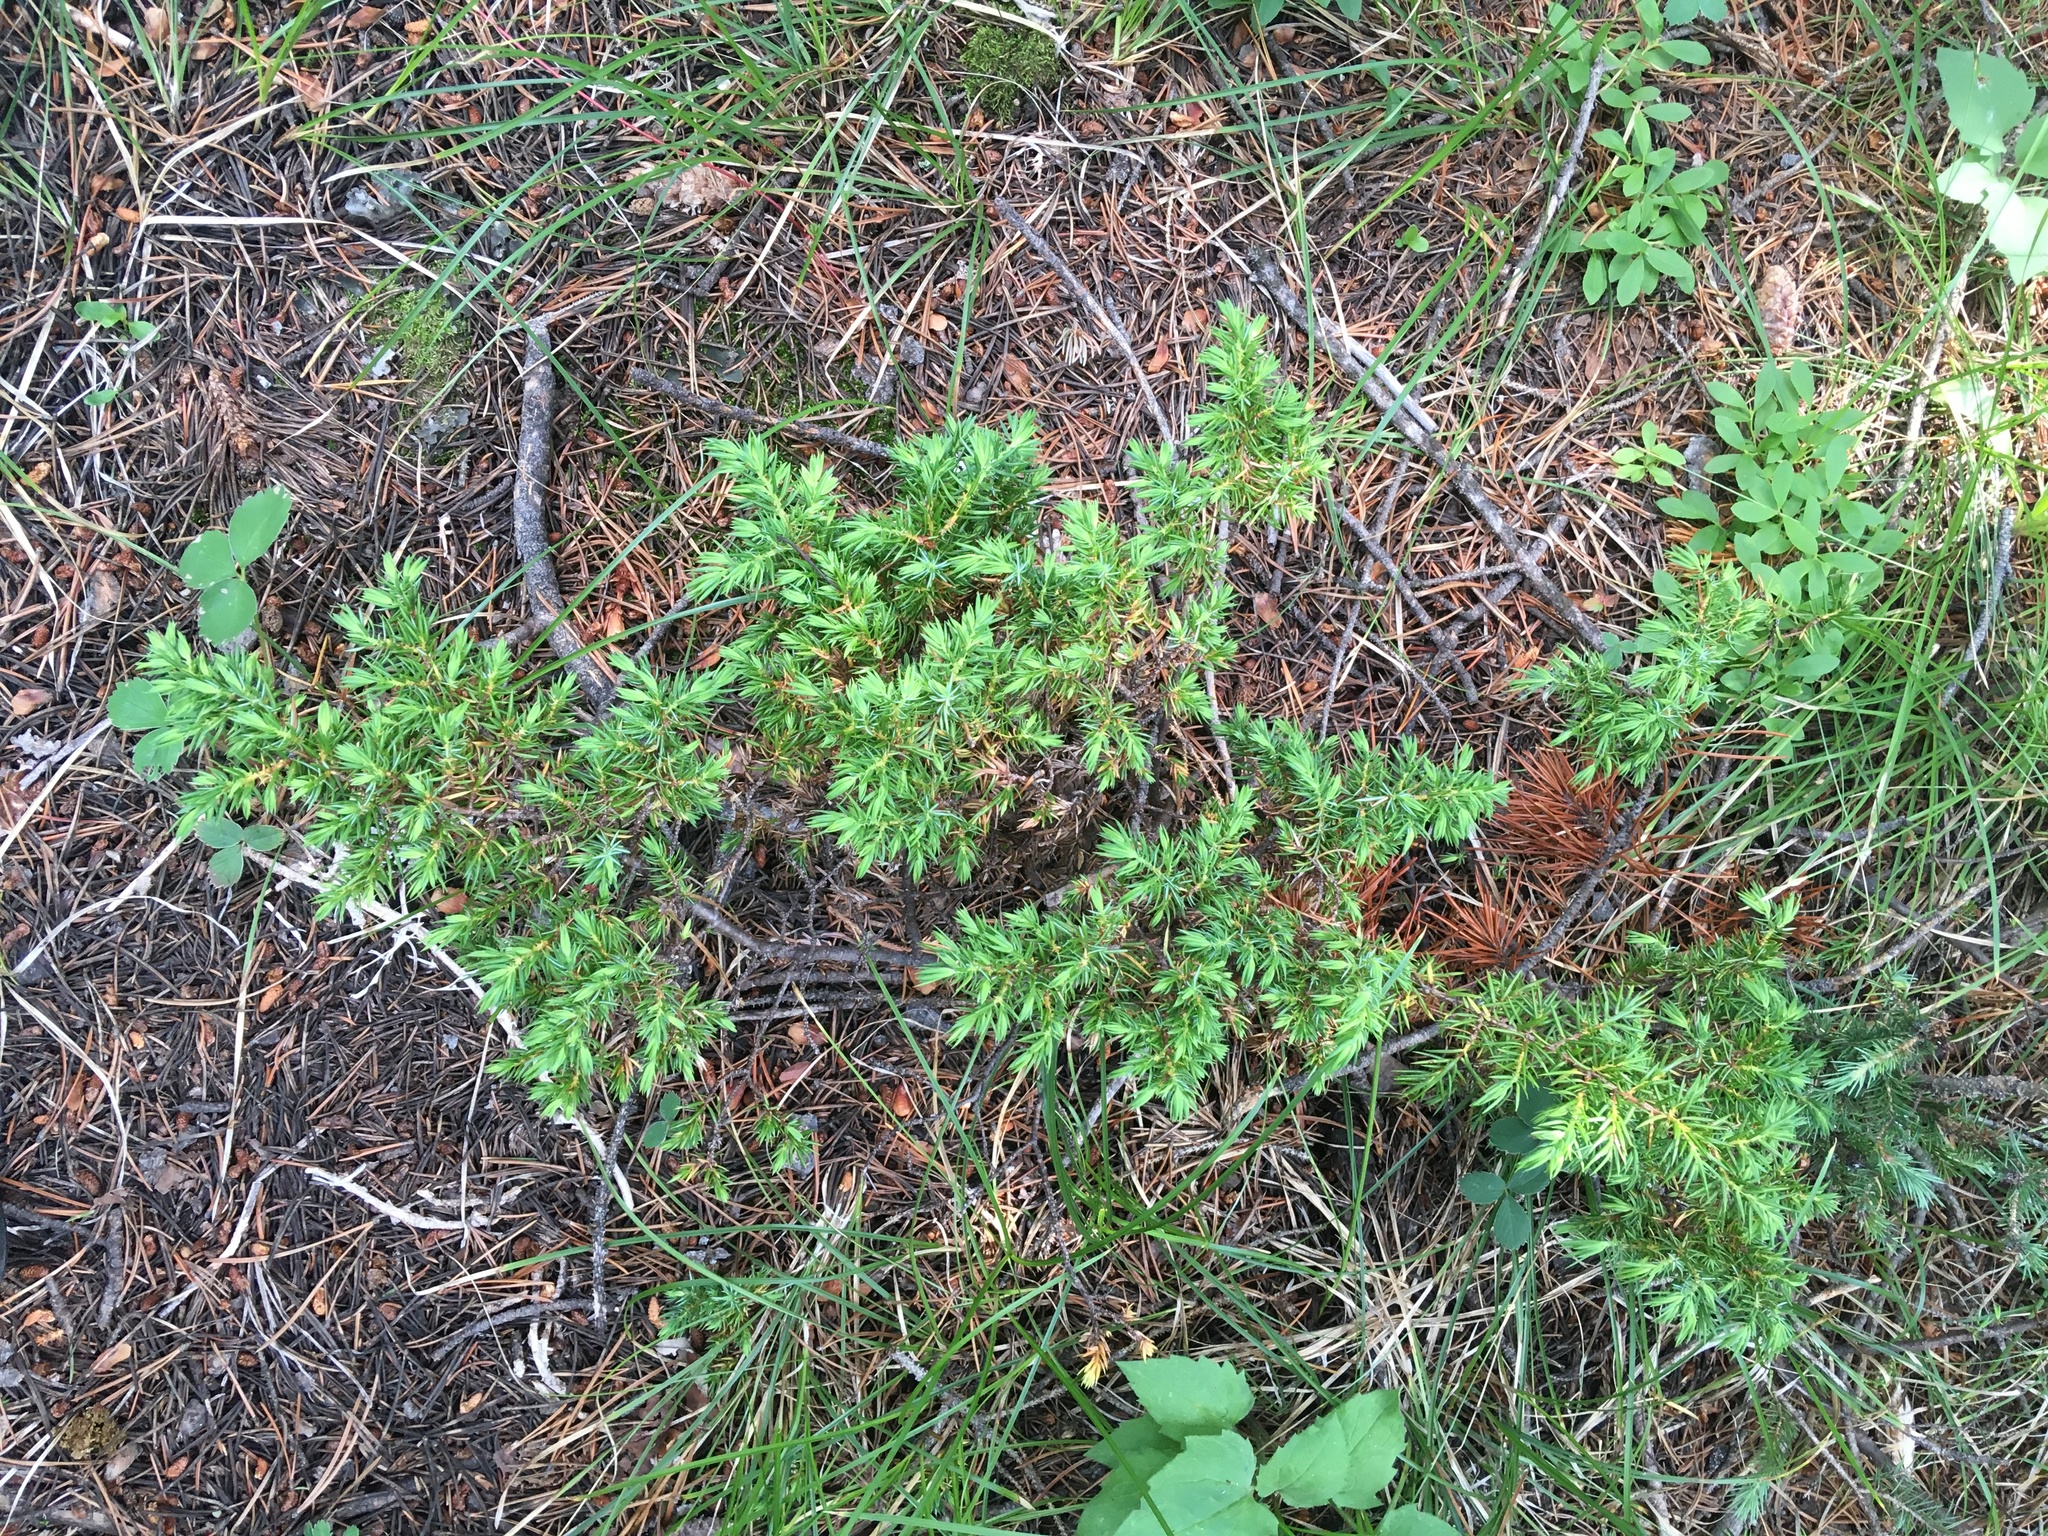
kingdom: Plantae
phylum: Tracheophyta
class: Pinopsida
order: Pinales
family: Cupressaceae
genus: Juniperus
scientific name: Juniperus communis
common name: Common juniper
